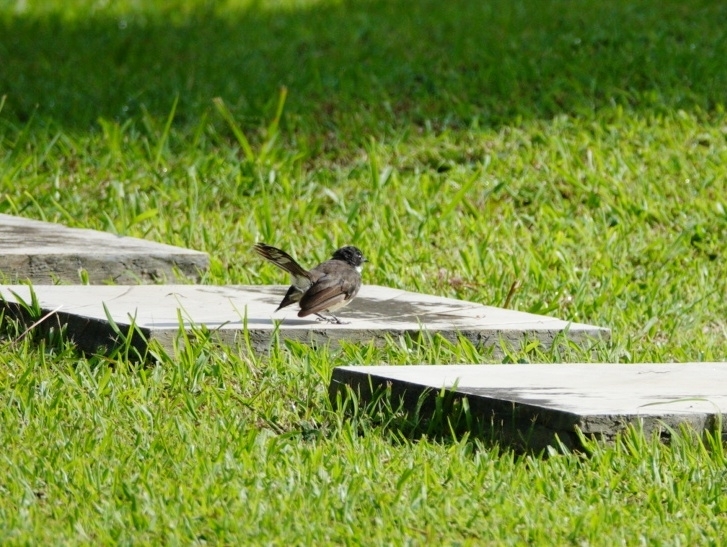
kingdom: Animalia
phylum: Chordata
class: Aves
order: Passeriformes
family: Rhipiduridae
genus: Rhipidura
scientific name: Rhipidura javanica
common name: Pied fantail
